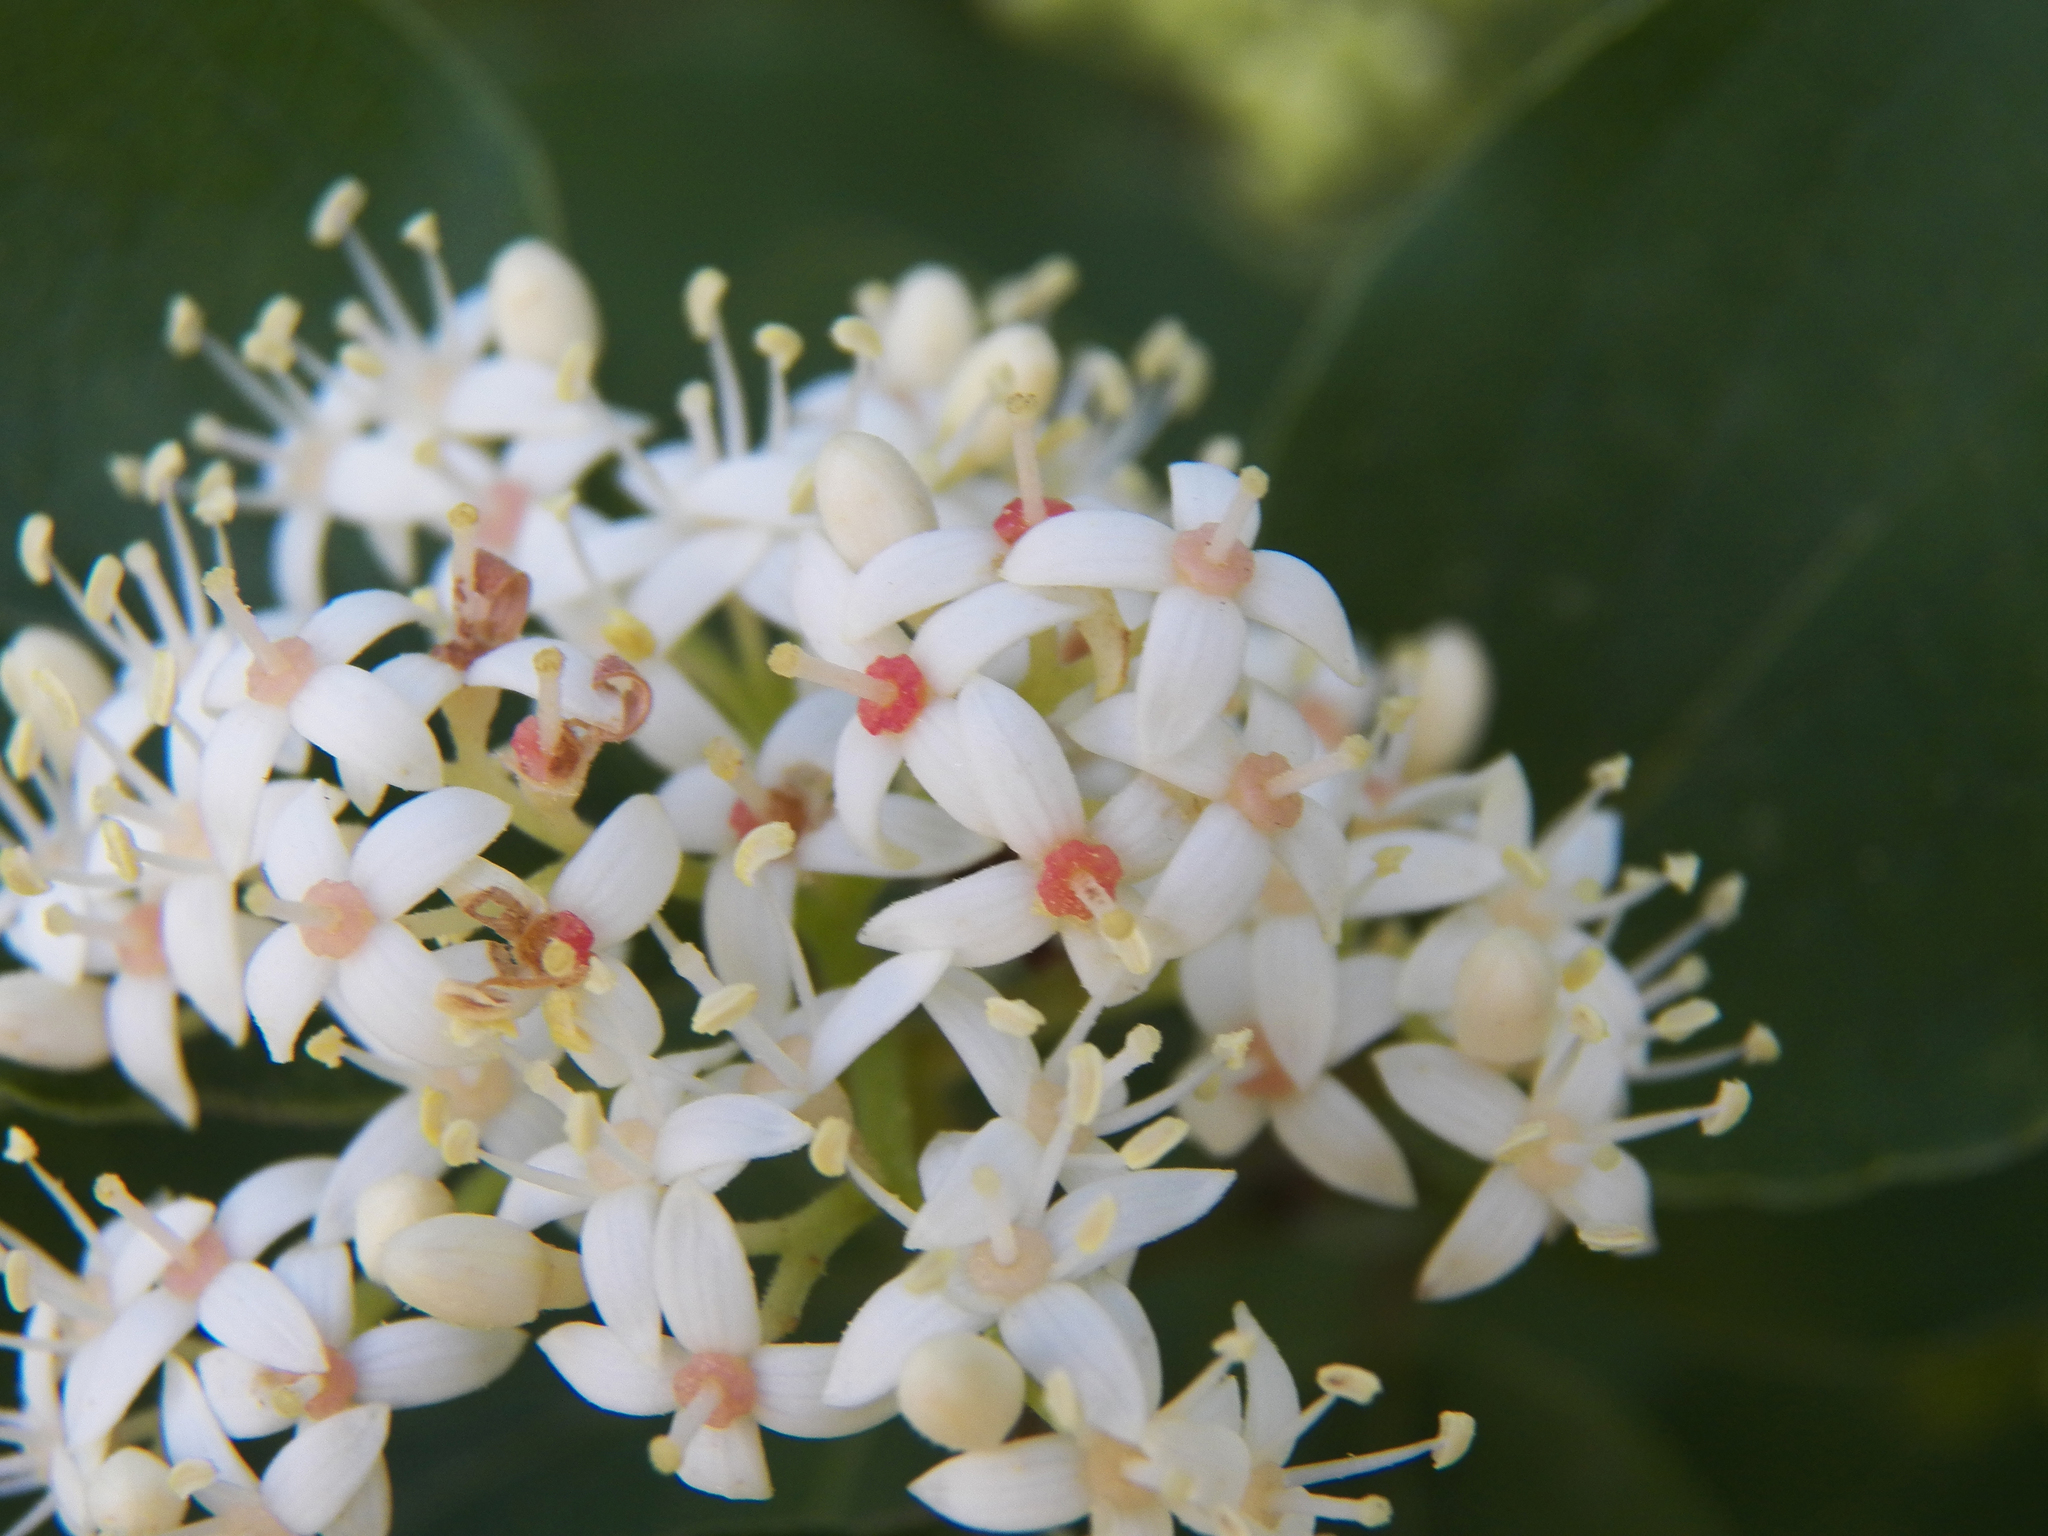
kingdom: Plantae
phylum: Tracheophyta
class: Magnoliopsida
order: Cornales
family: Cornaceae
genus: Cornus
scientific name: Cornus drummondii
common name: Rough-leaf dogwood
